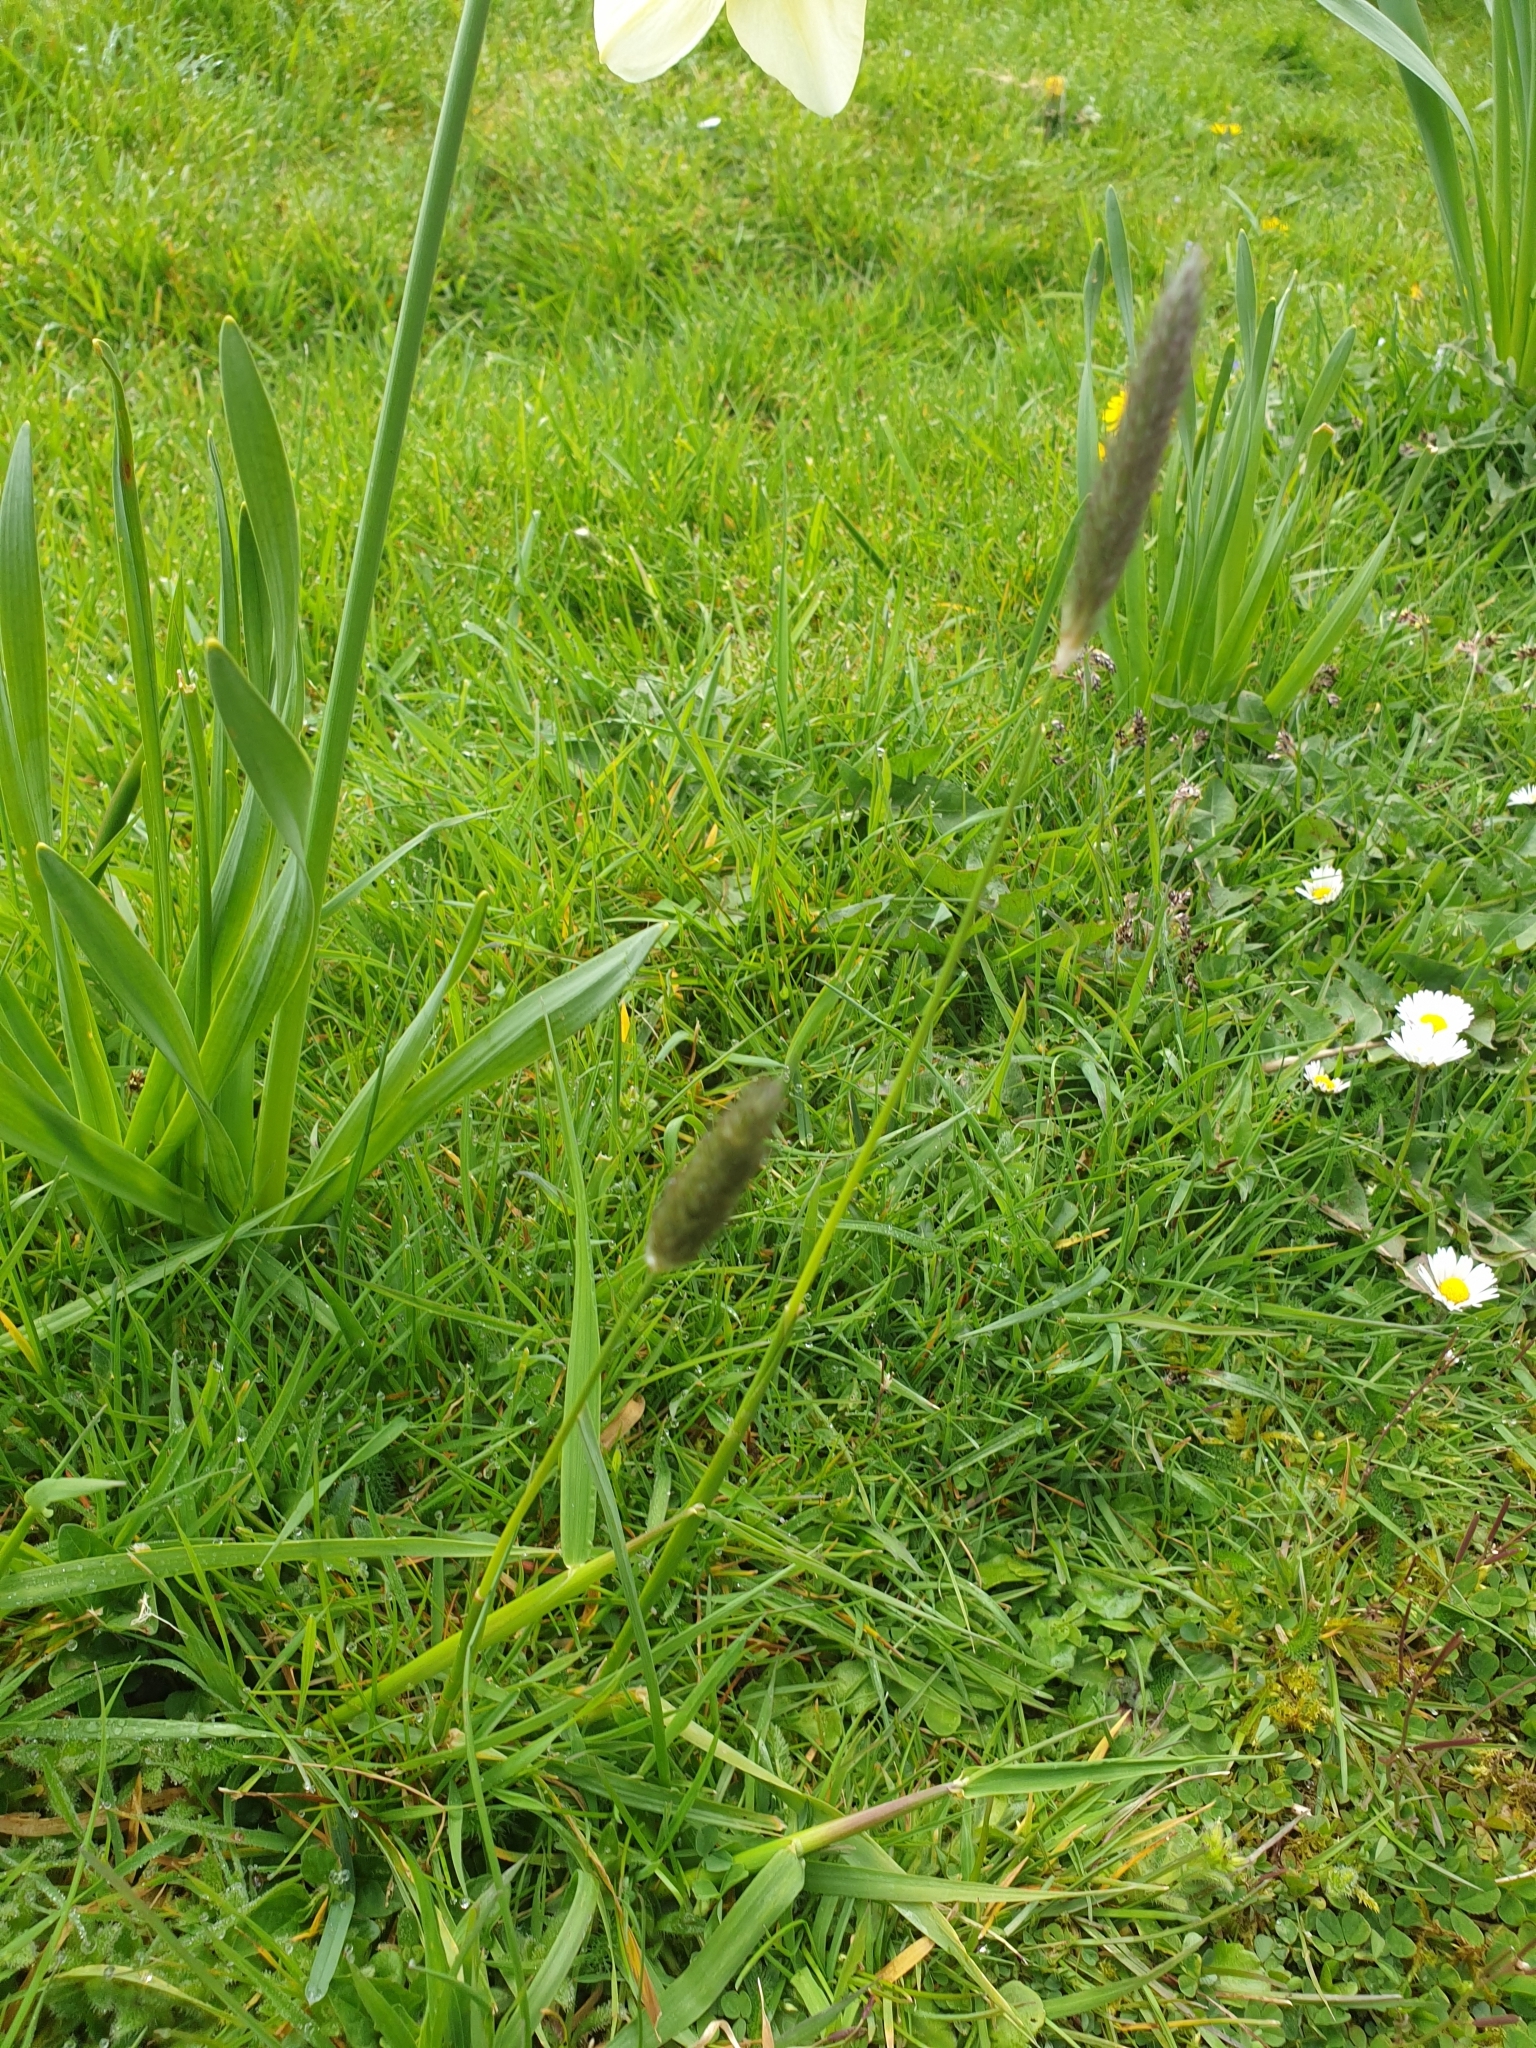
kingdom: Plantae
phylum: Tracheophyta
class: Liliopsida
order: Poales
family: Poaceae
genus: Alopecurus
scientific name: Alopecurus pratensis
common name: Meadow foxtail
